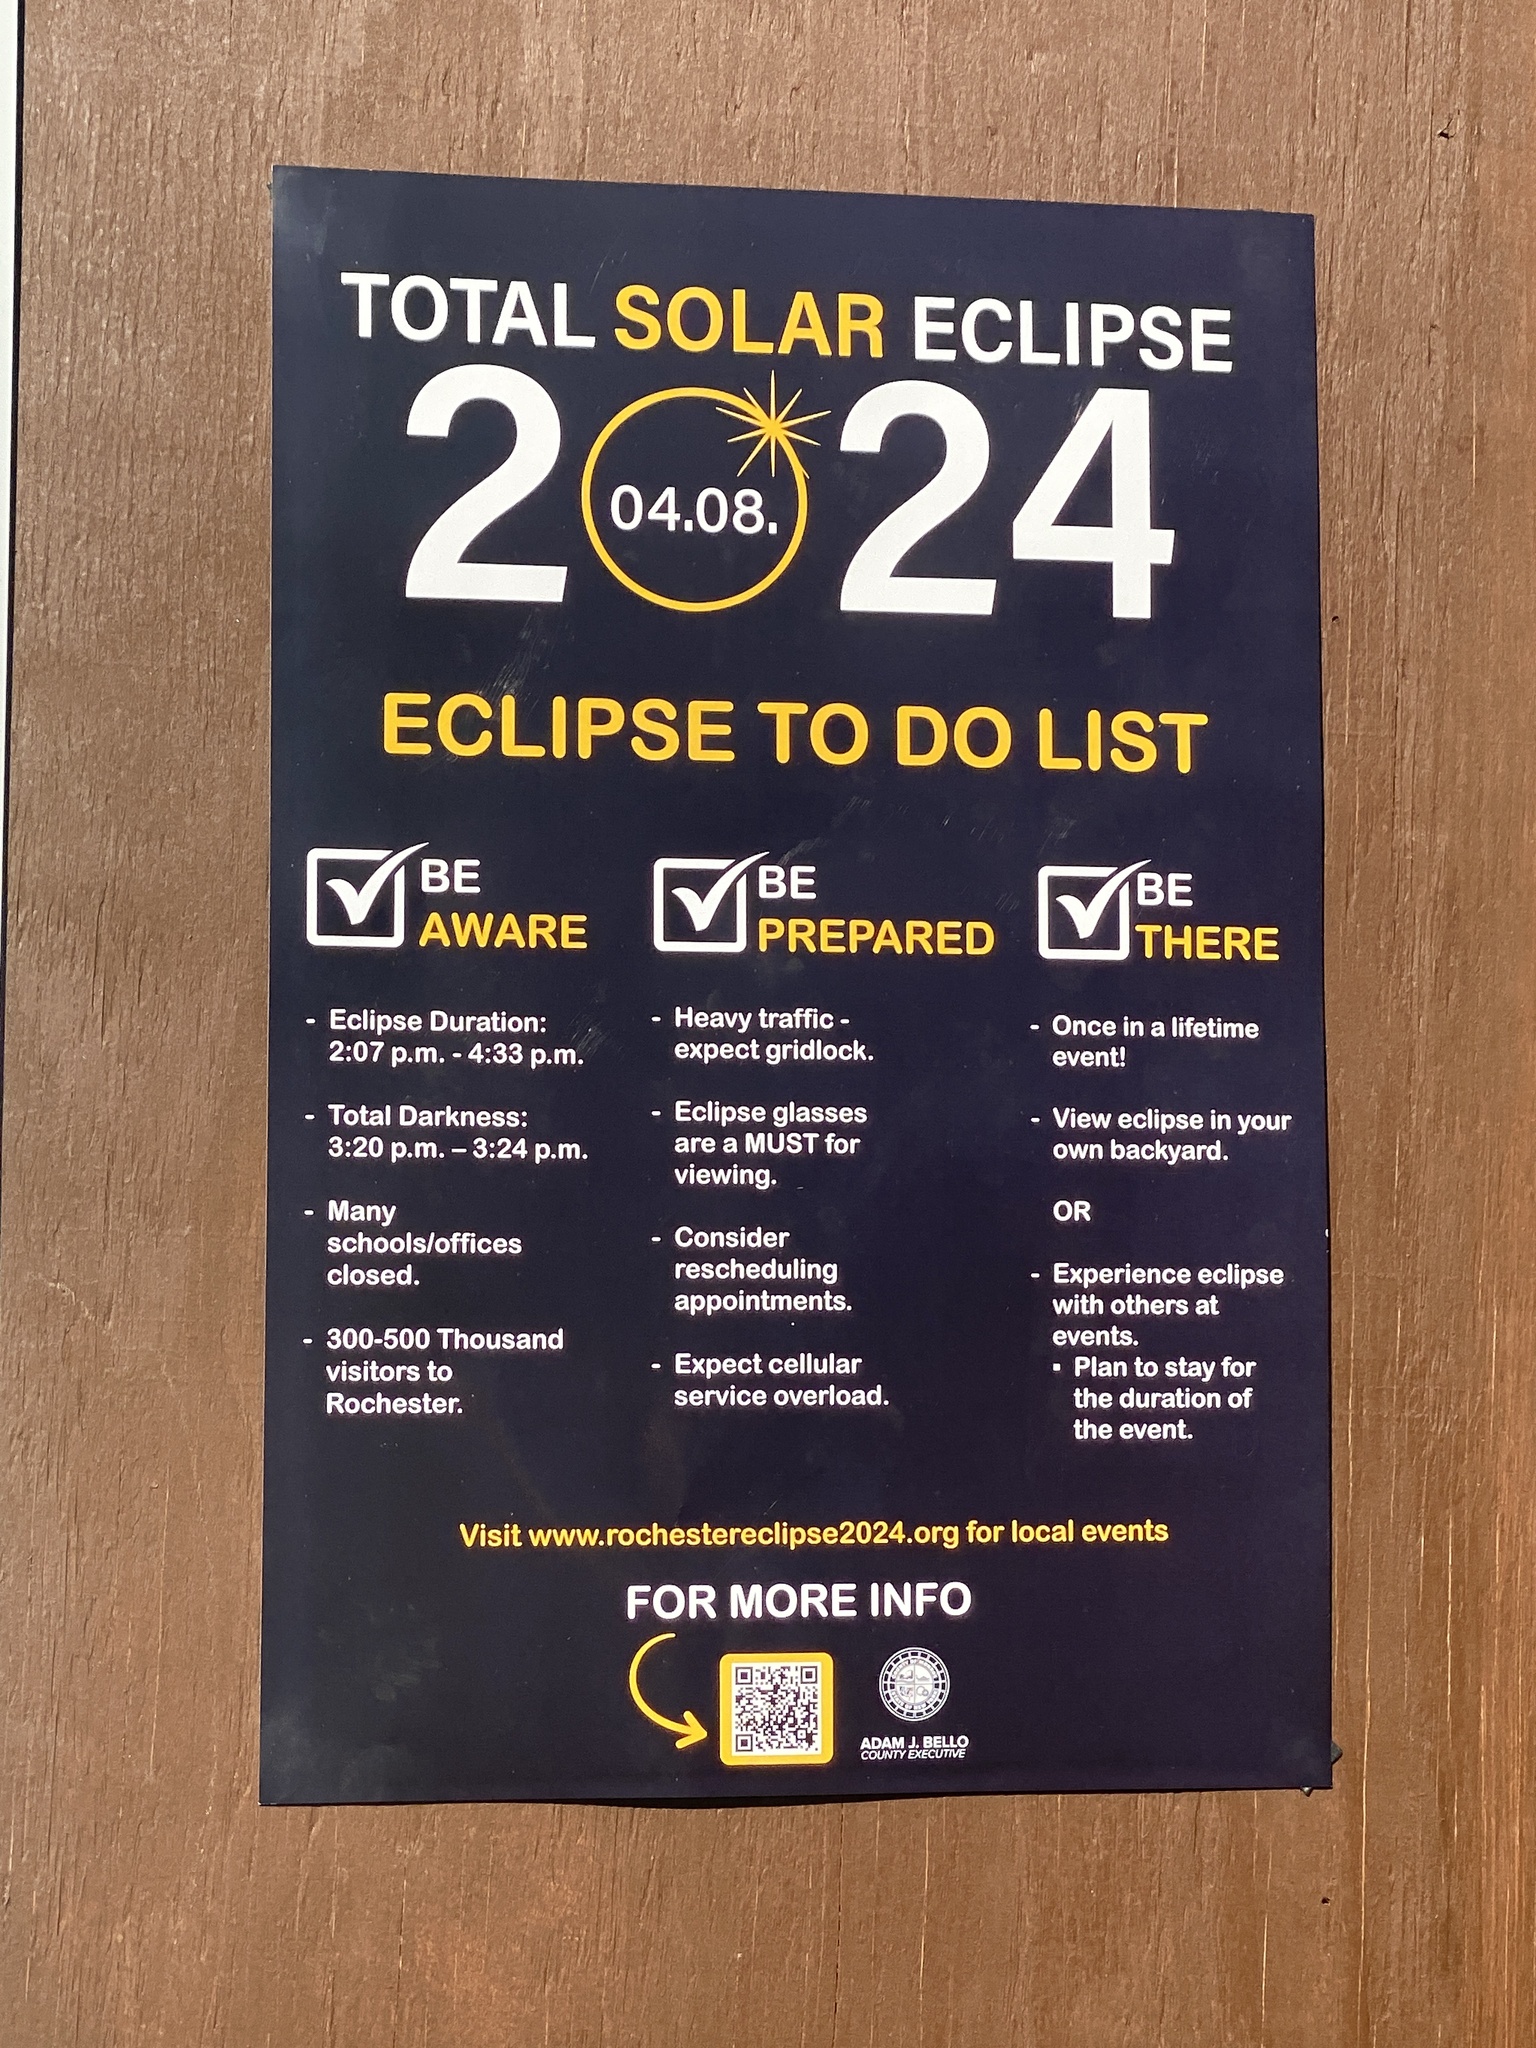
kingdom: Animalia
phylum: Chordata
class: Aves
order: Passeriformes
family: Turdidae
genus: Turdus
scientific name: Turdus migratorius
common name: American robin
